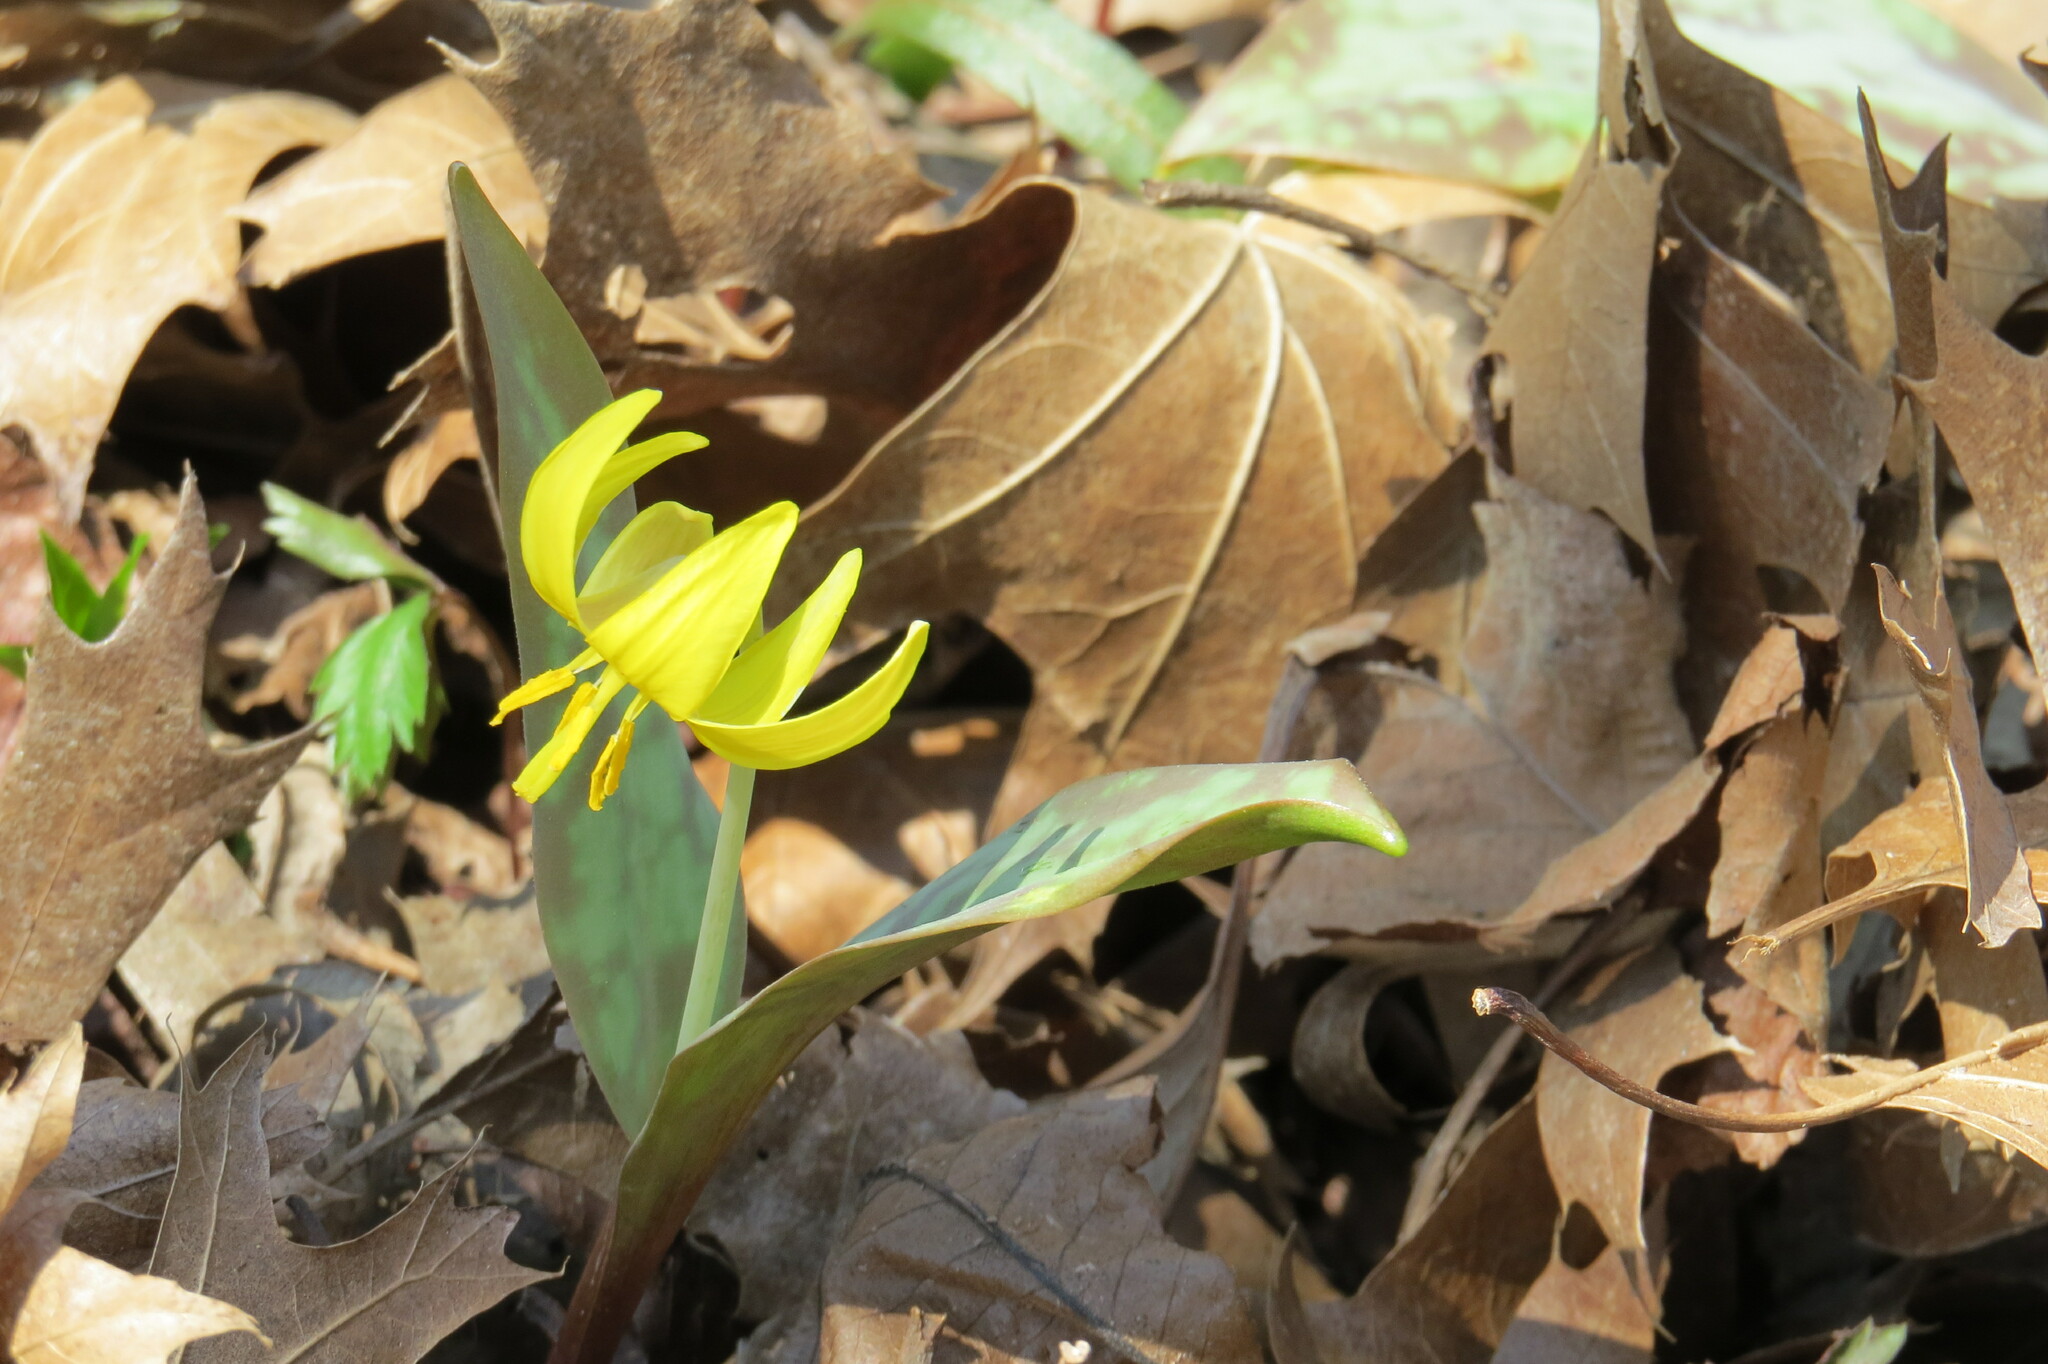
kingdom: Plantae
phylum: Tracheophyta
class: Liliopsida
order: Liliales
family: Liliaceae
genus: Erythronium
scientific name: Erythronium americanum
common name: Yellow adder's-tongue
